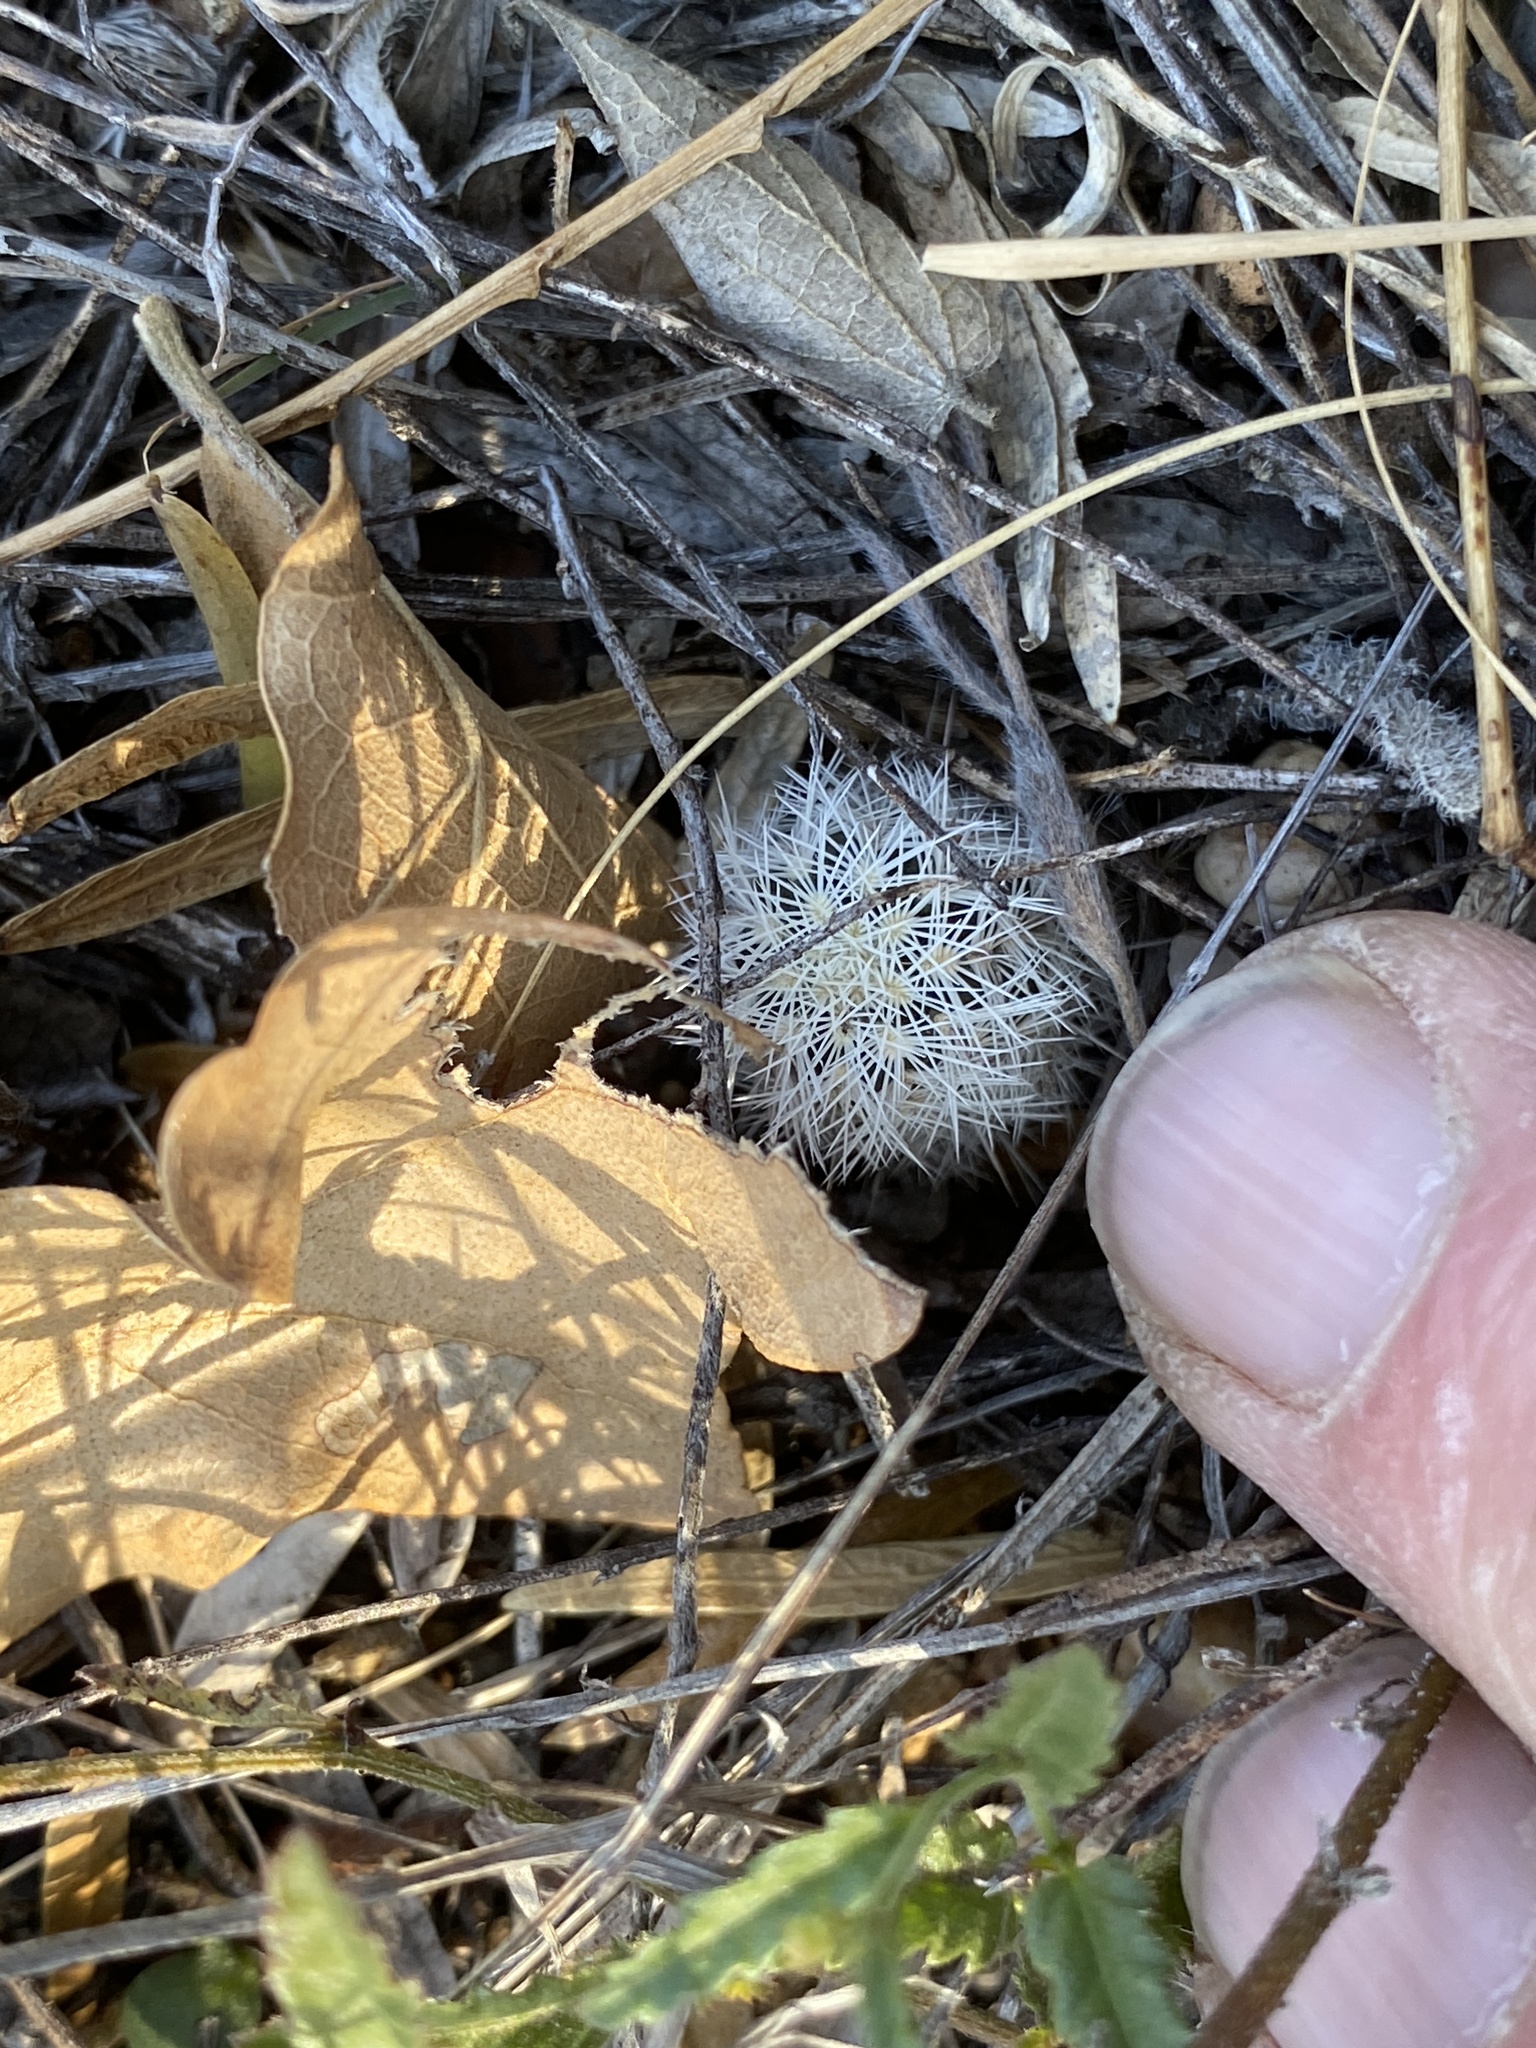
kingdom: Plantae
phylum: Tracheophyta
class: Magnoliopsida
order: Caryophyllales
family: Cactaceae
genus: Echinocereus
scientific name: Echinocereus reichenbachii
